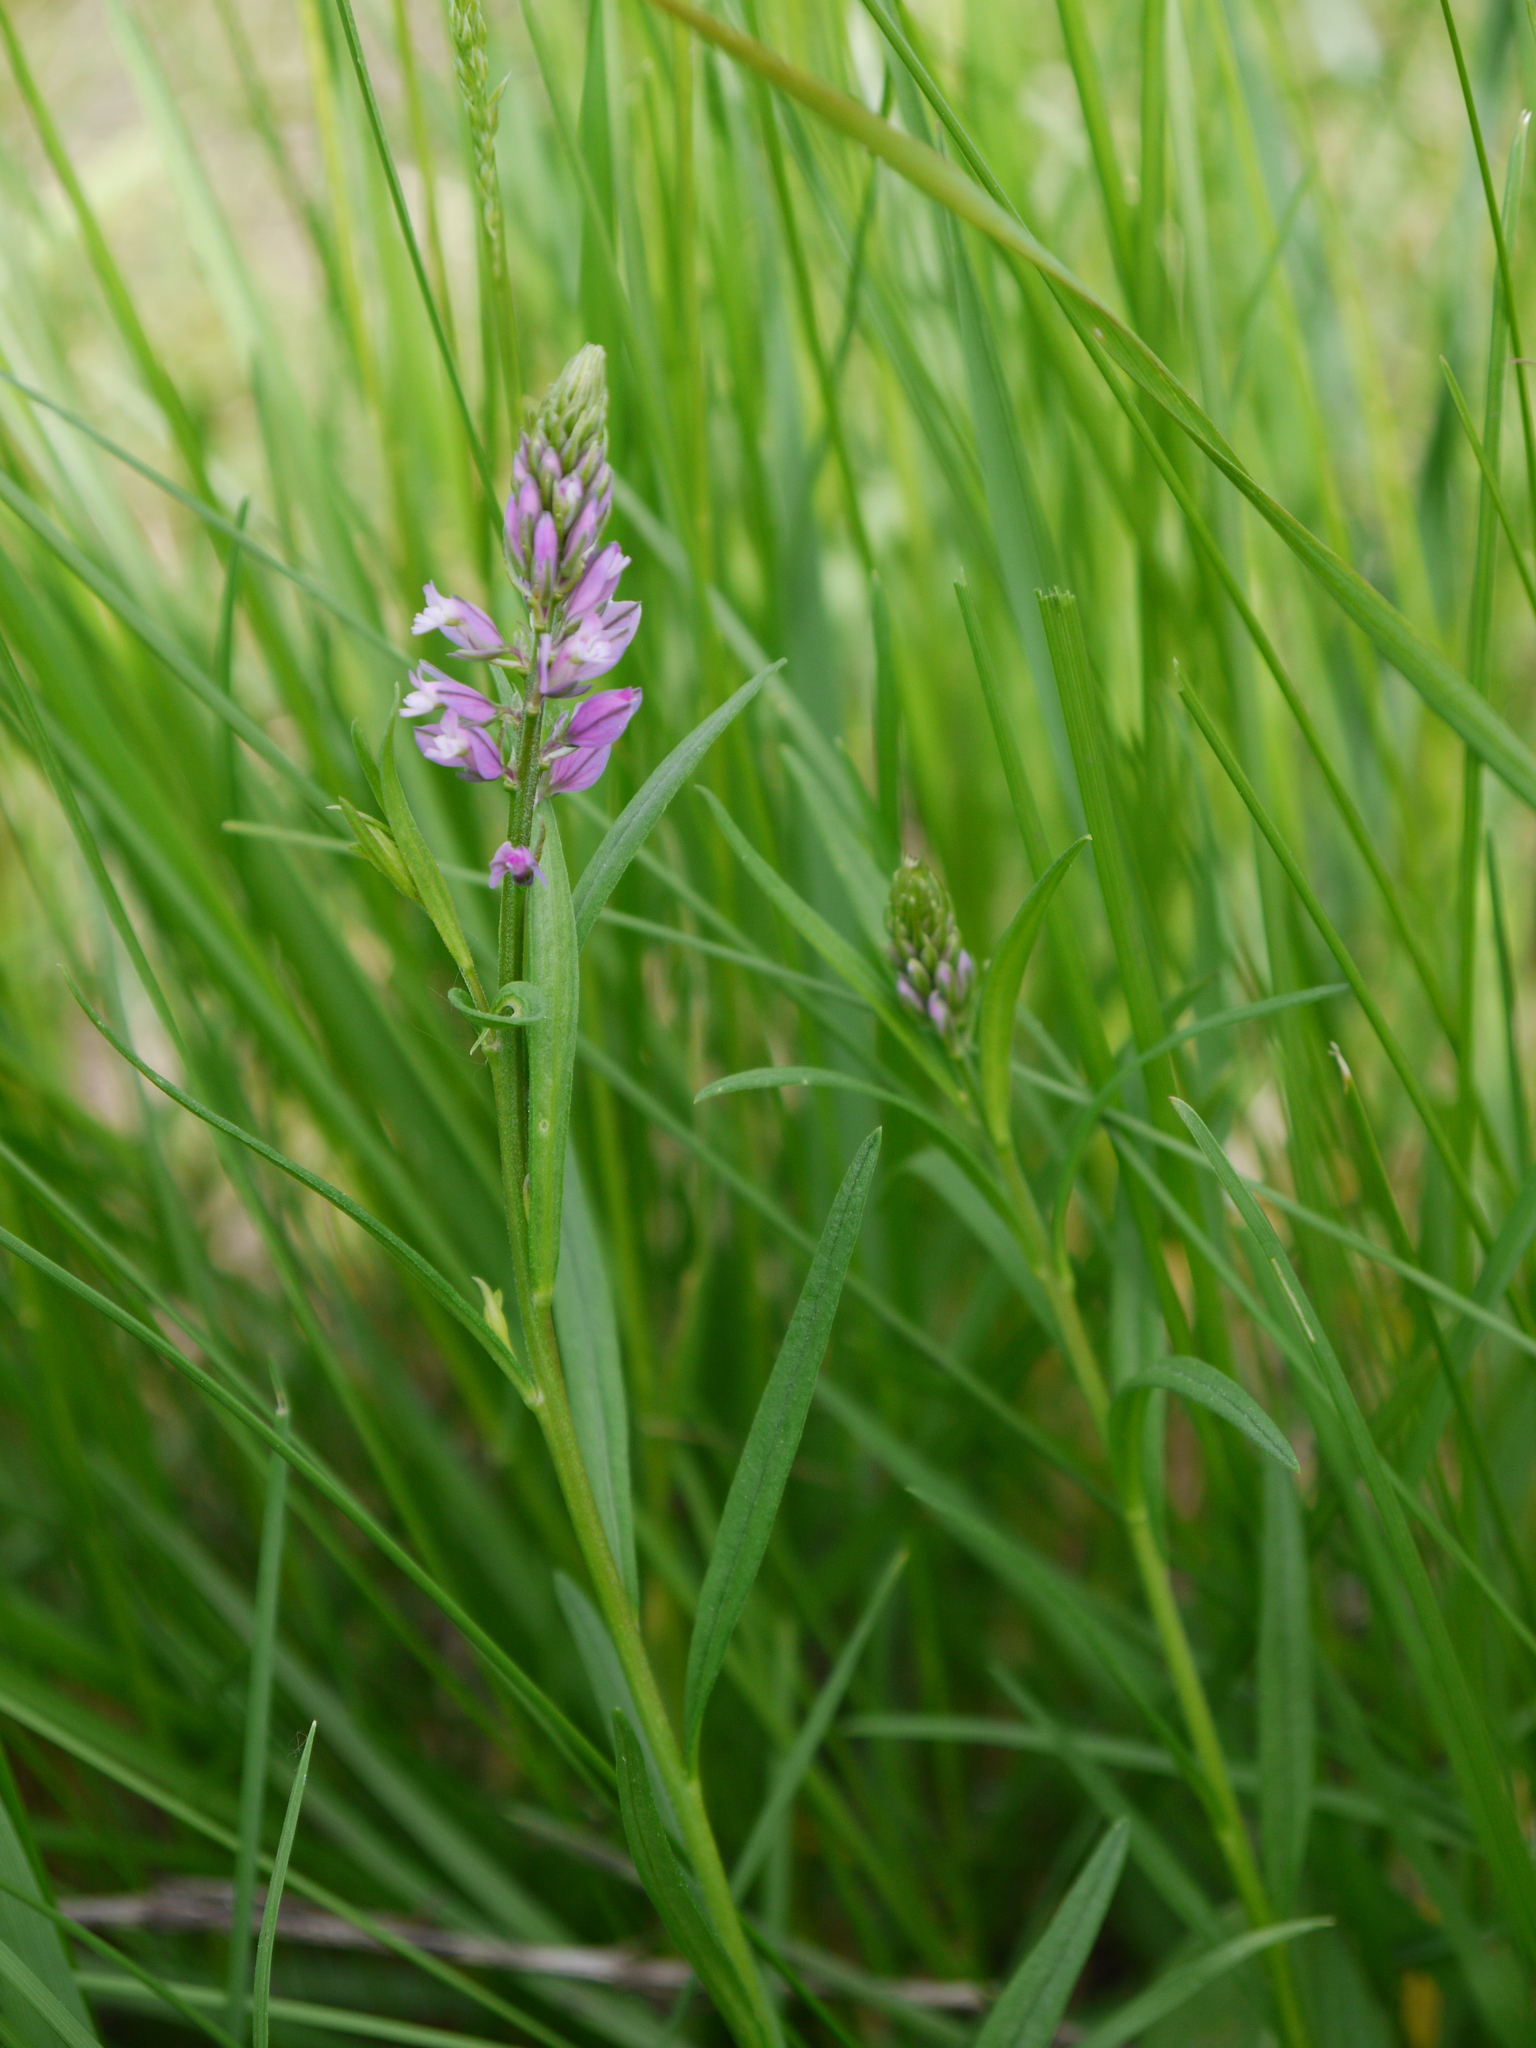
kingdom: Plantae
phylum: Tracheophyta
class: Magnoliopsida
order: Fabales
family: Polygalaceae
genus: Polygala
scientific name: Polygala comosa
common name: Tufted milkwort
